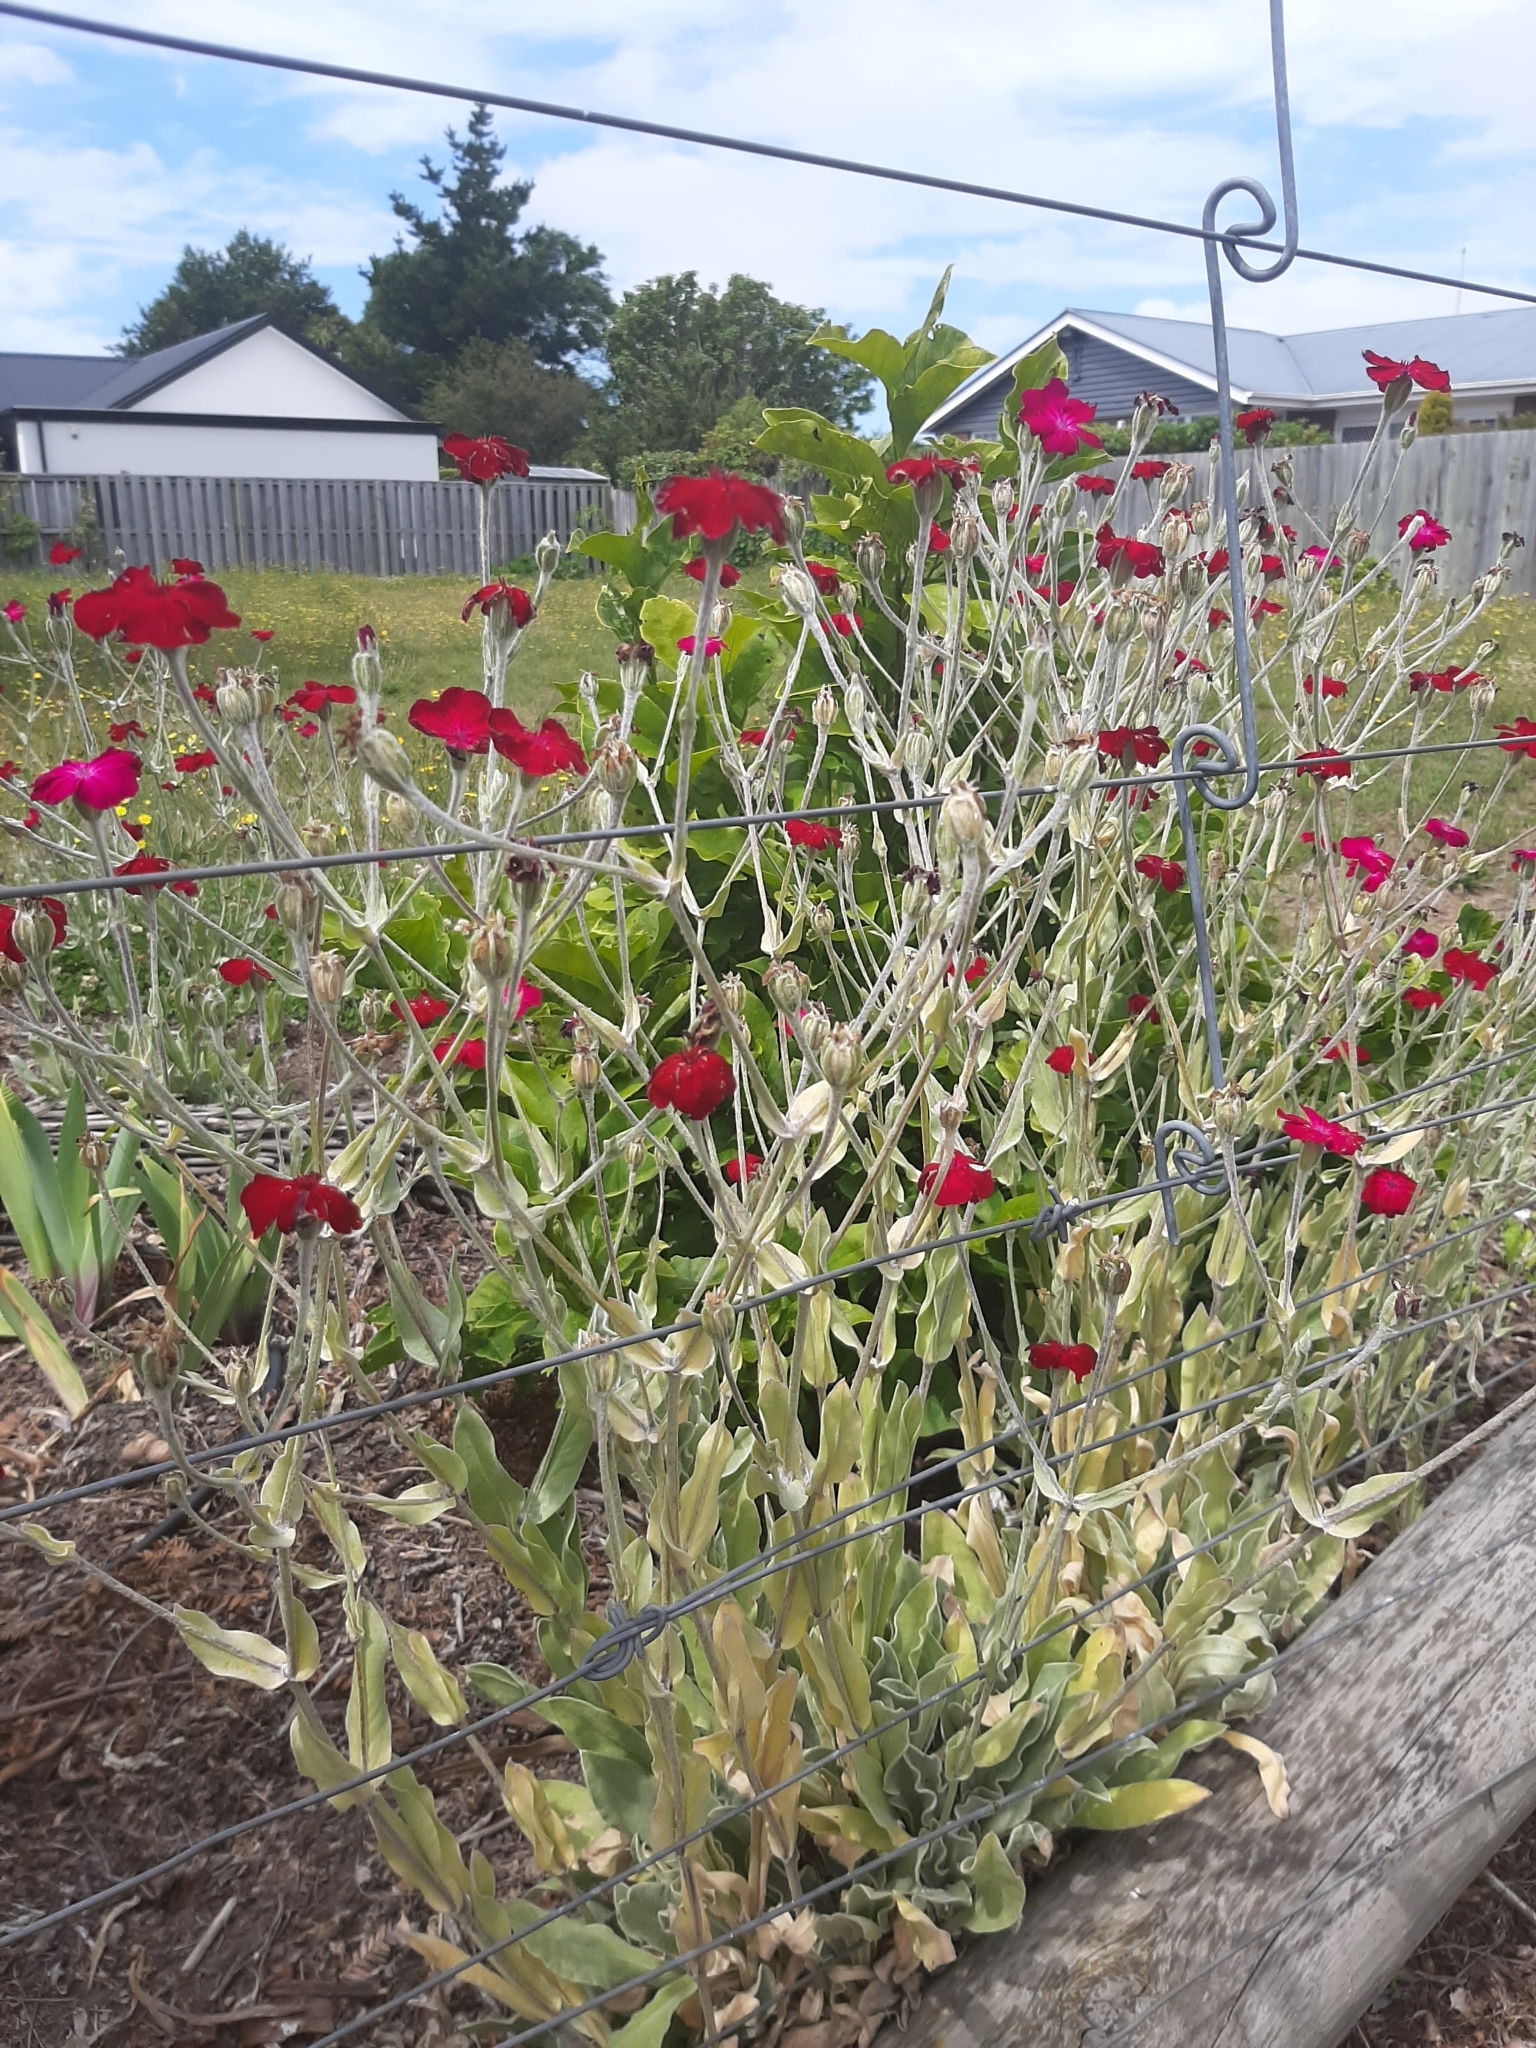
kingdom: Plantae
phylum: Tracheophyta
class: Magnoliopsida
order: Caryophyllales
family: Caryophyllaceae
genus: Silene
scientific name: Silene coronaria
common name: Rose campion
